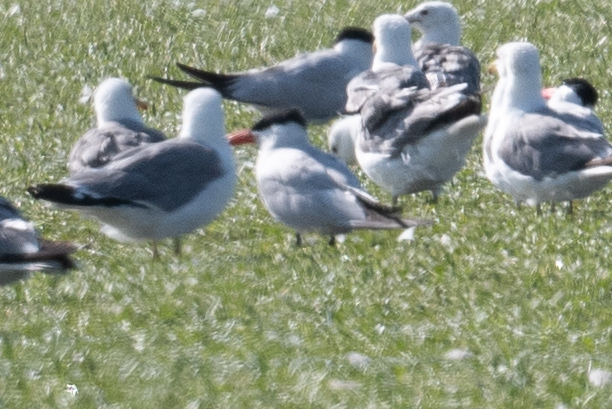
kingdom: Animalia
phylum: Chordata
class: Aves
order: Charadriiformes
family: Laridae
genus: Hydroprogne
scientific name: Hydroprogne caspia
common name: Caspian tern
